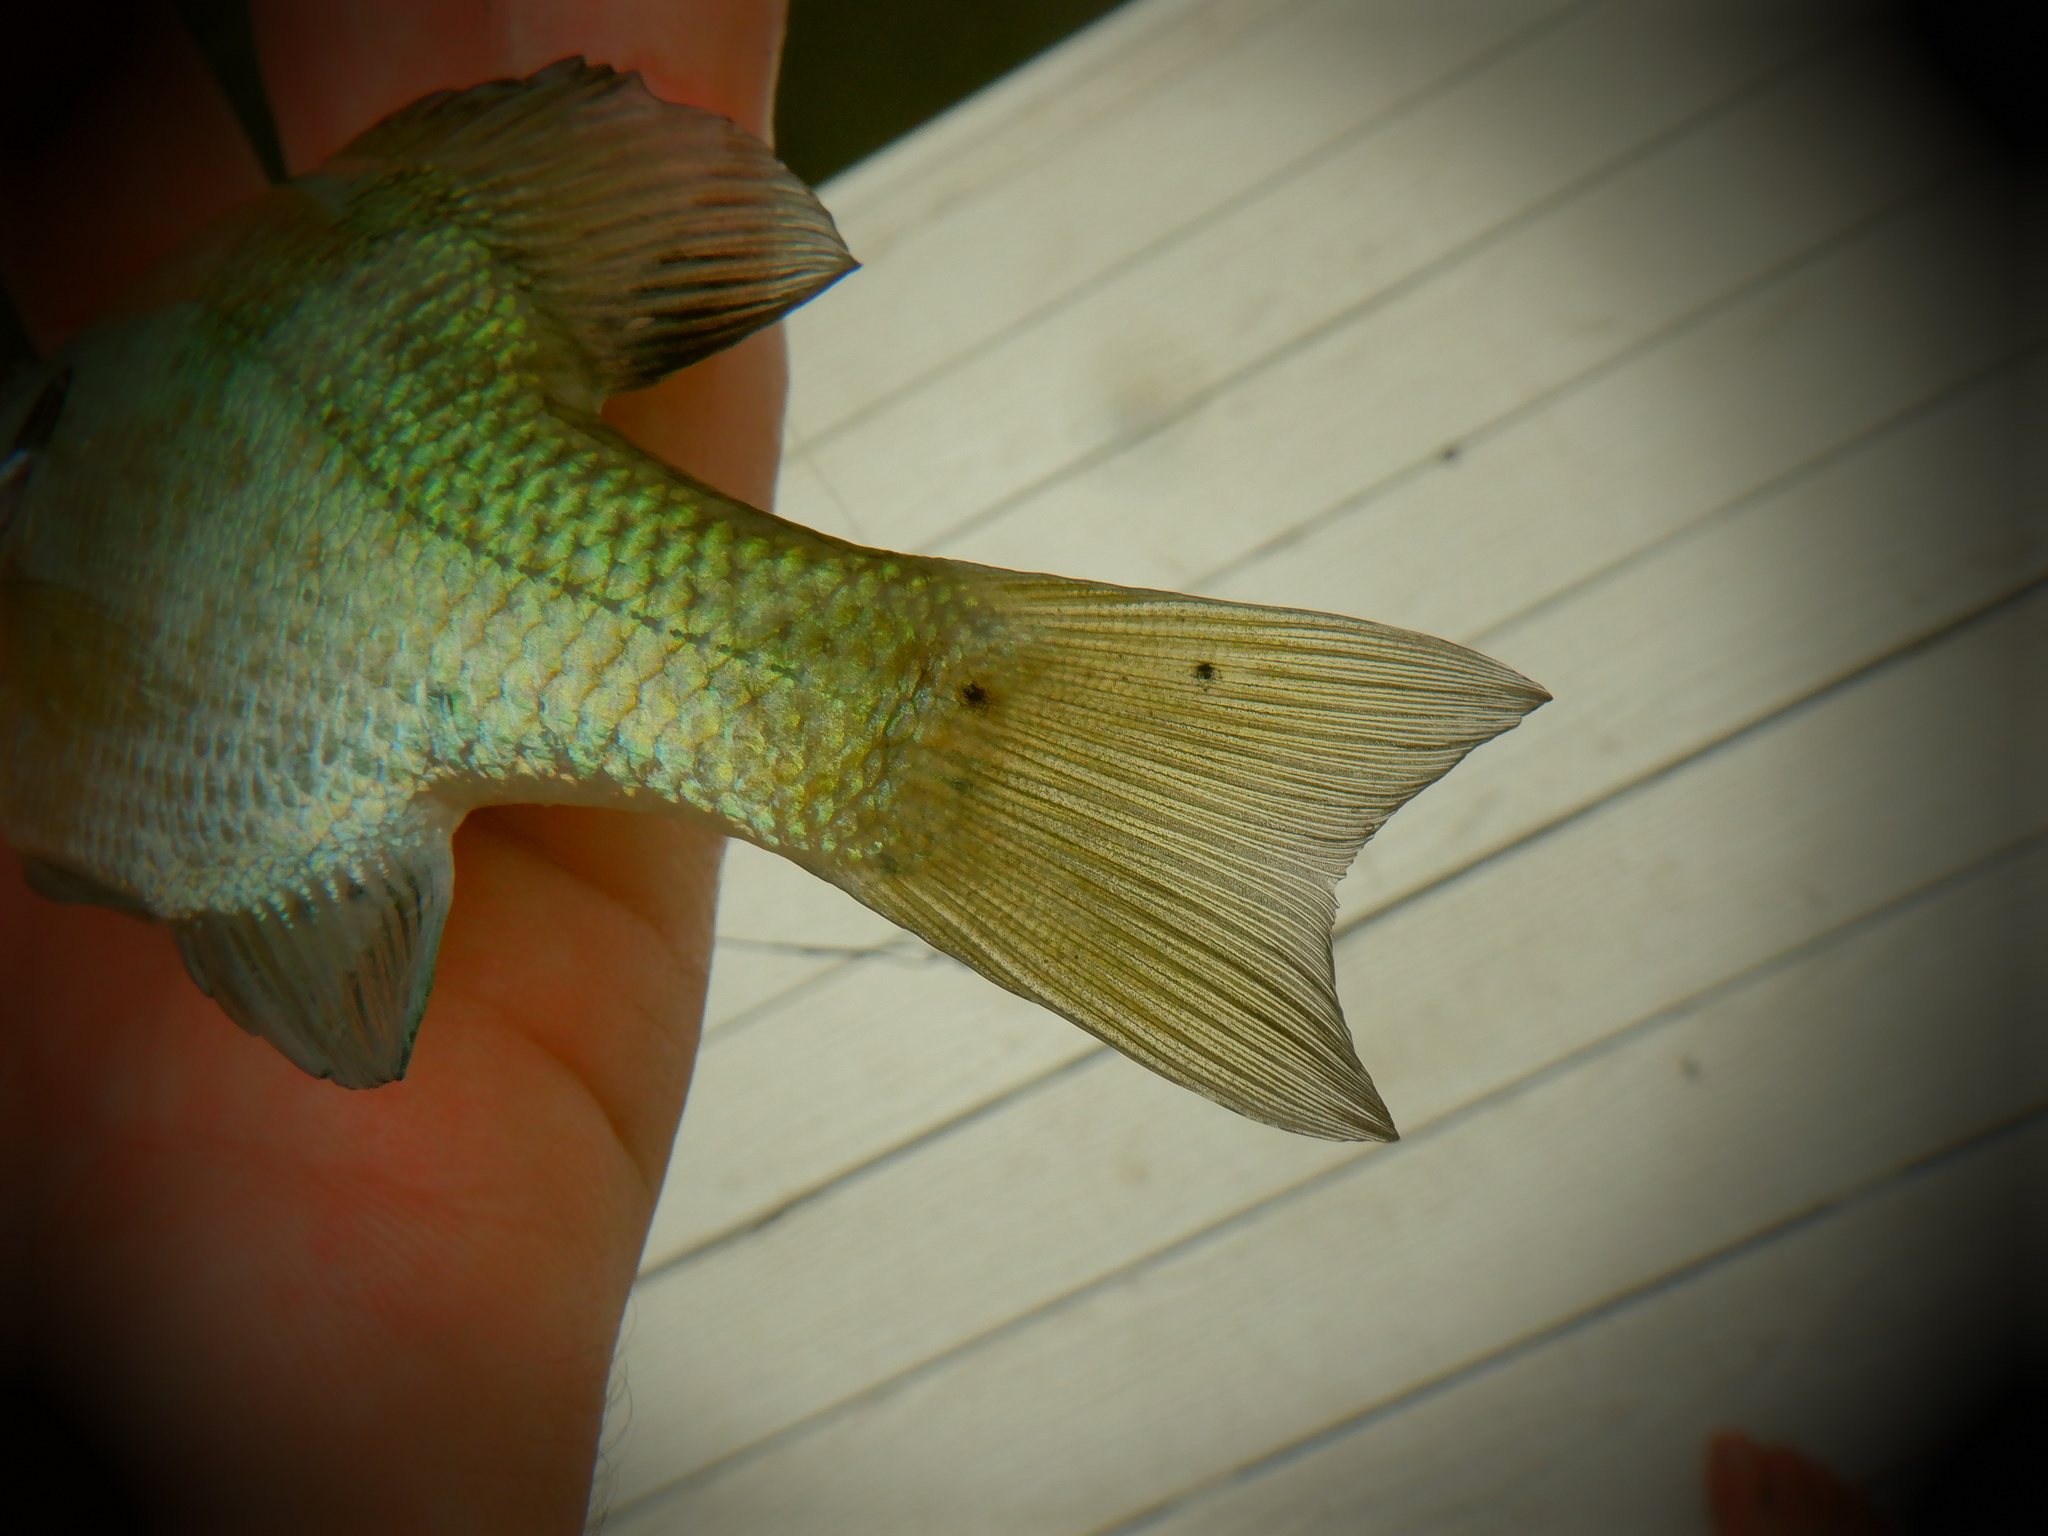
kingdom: Animalia
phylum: Platyhelminthes
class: Trematoda
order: Diplostomida
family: Diplostomidae
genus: Neascus
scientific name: Neascus
